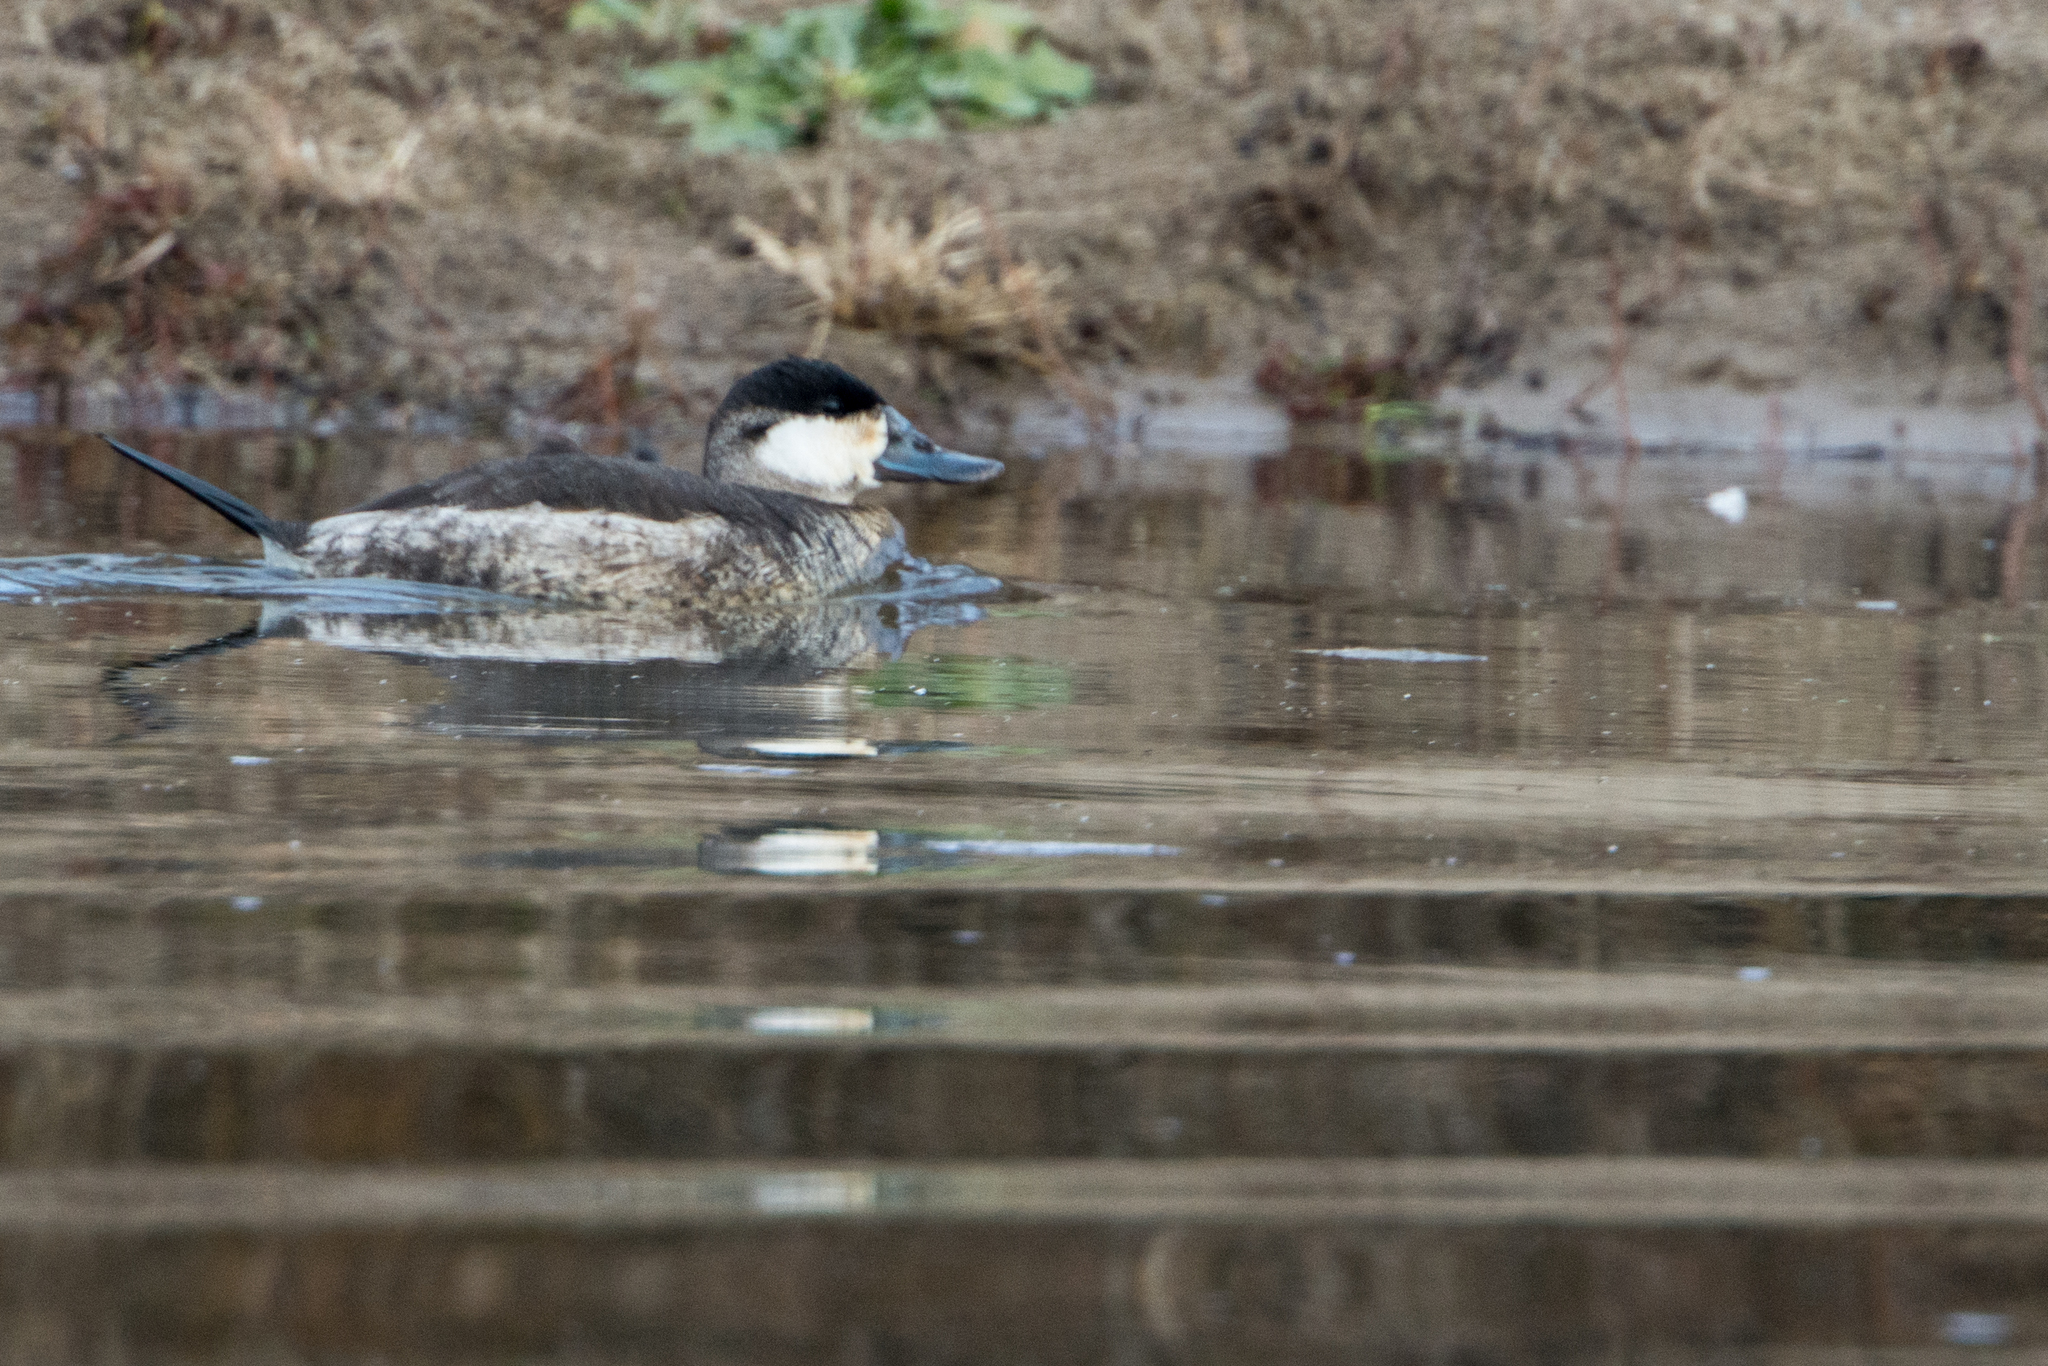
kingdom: Animalia
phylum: Chordata
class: Aves
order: Anseriformes
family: Anatidae
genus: Oxyura
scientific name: Oxyura jamaicensis
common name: Ruddy duck
